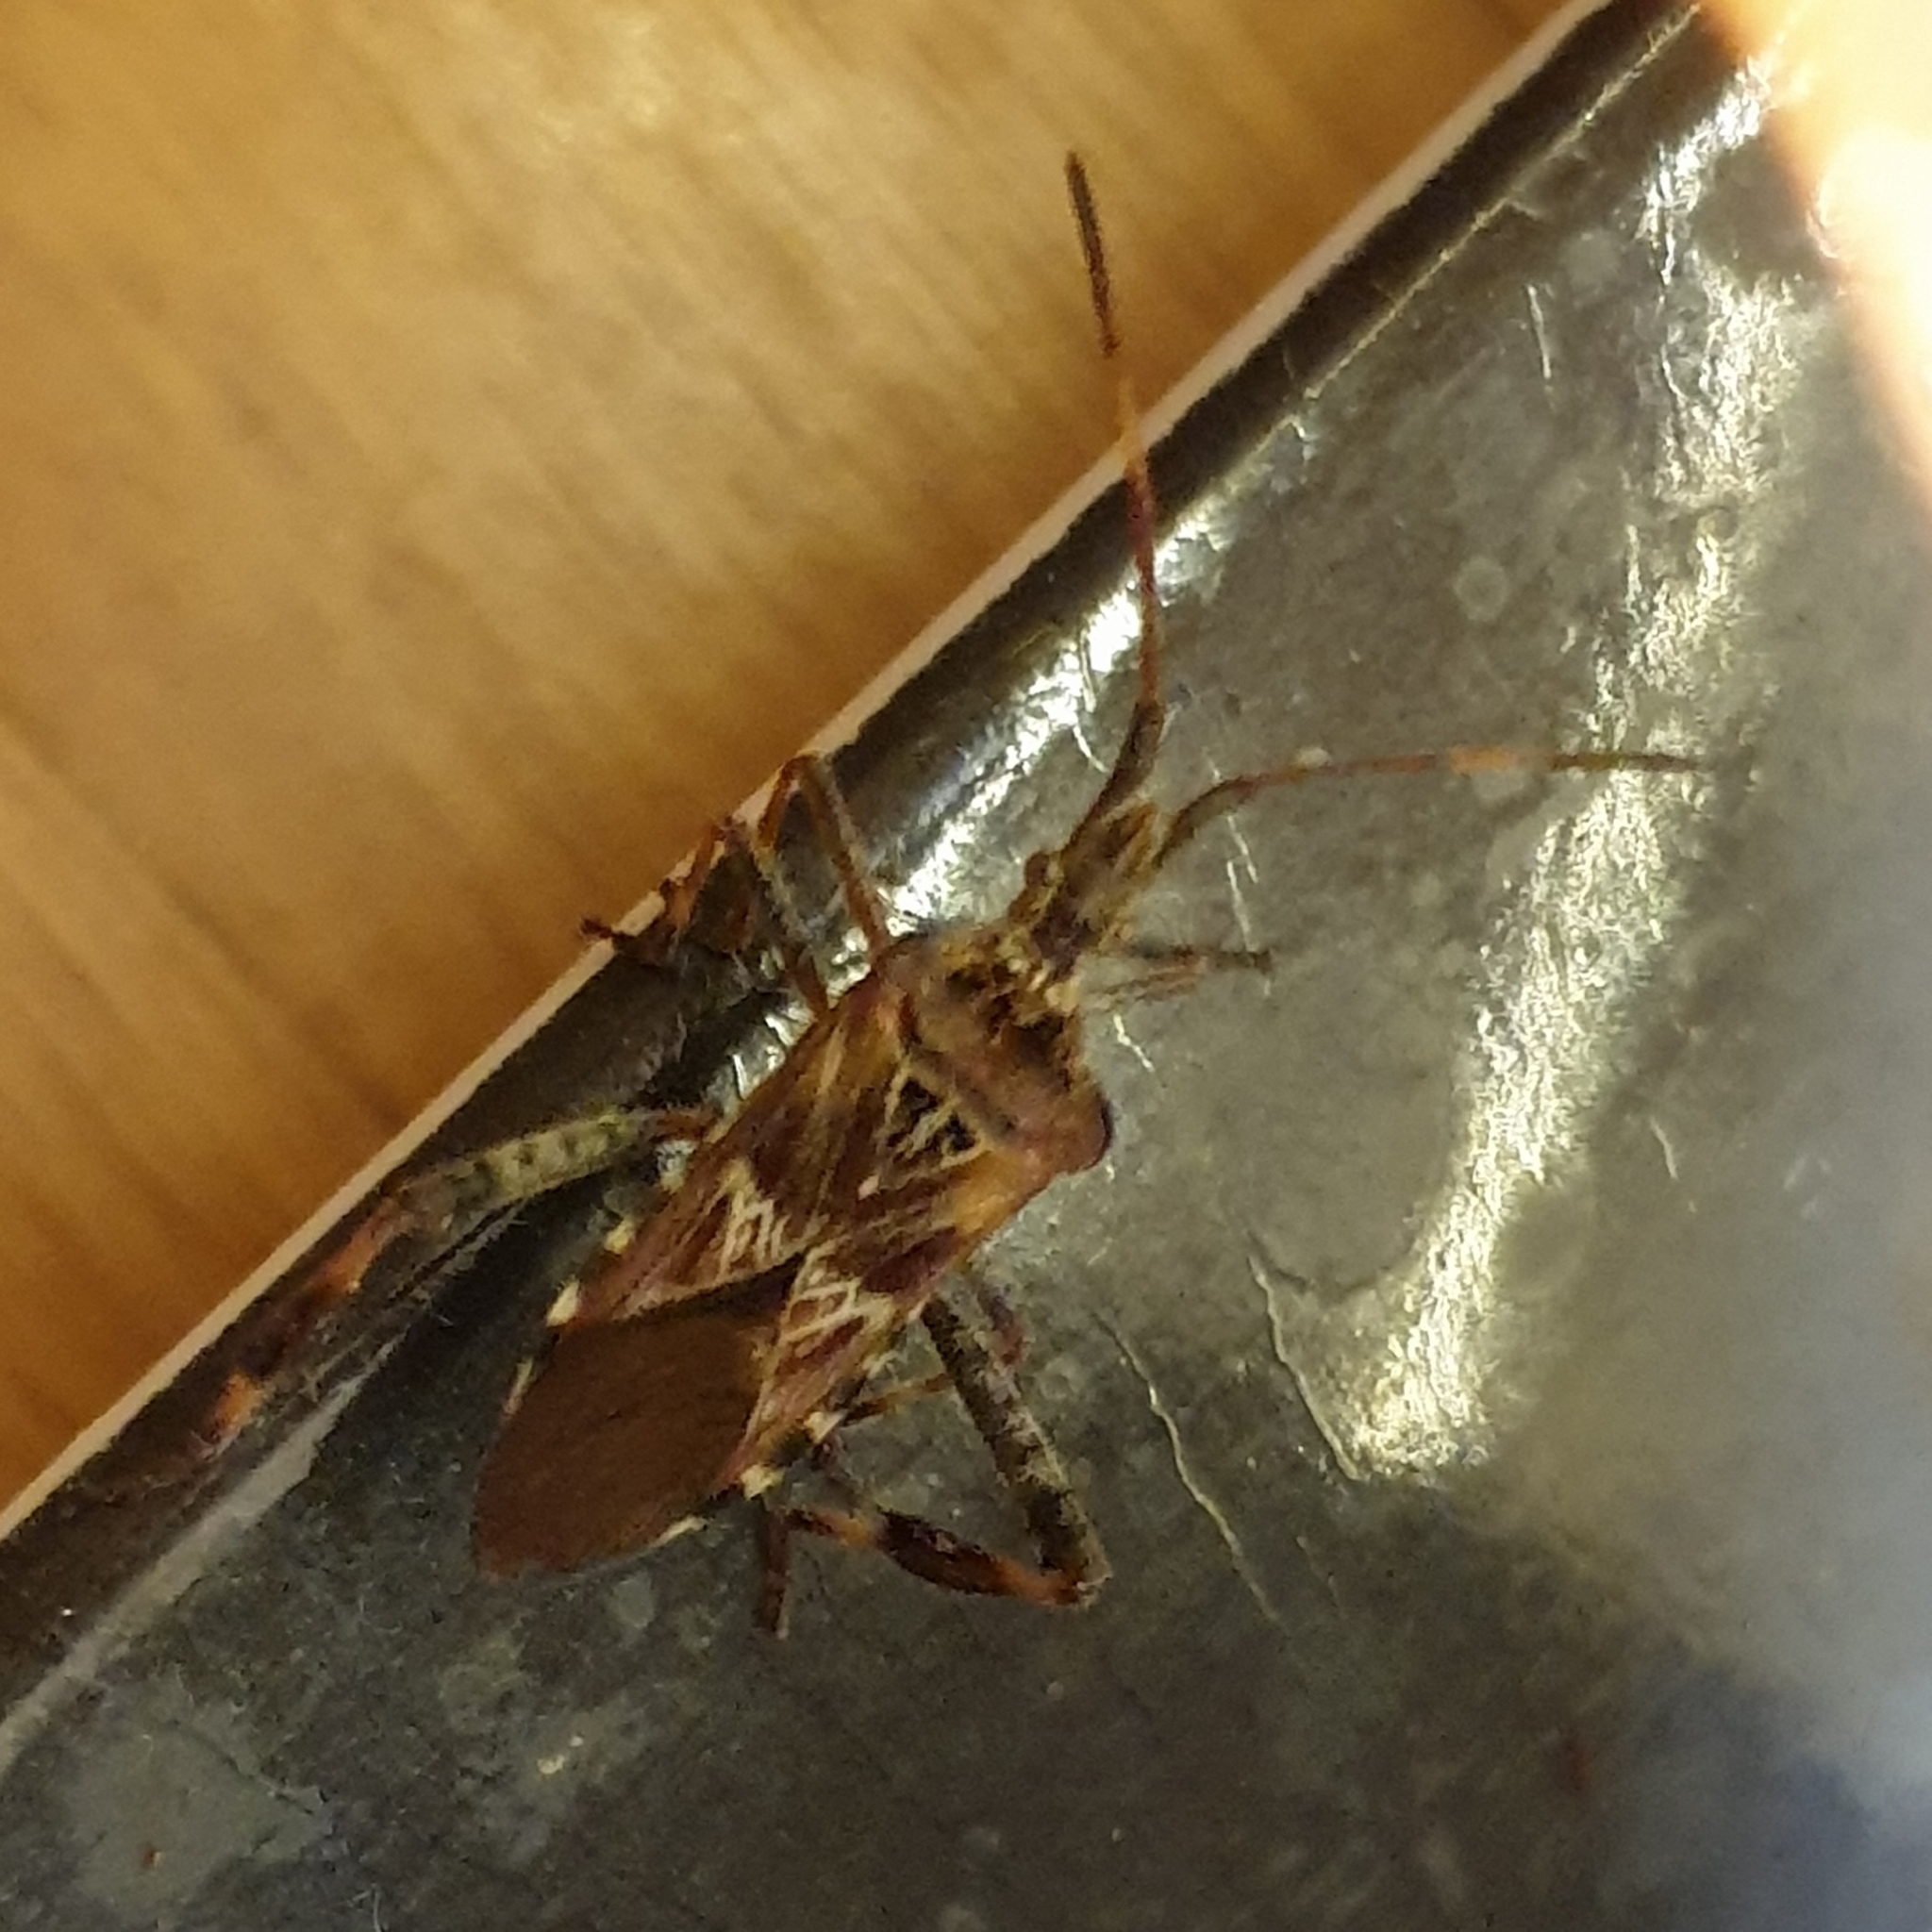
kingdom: Animalia
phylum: Arthropoda
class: Insecta
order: Hemiptera
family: Coreidae
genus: Leptoglossus
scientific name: Leptoglossus occidentalis
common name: Western conifer-seed bug
